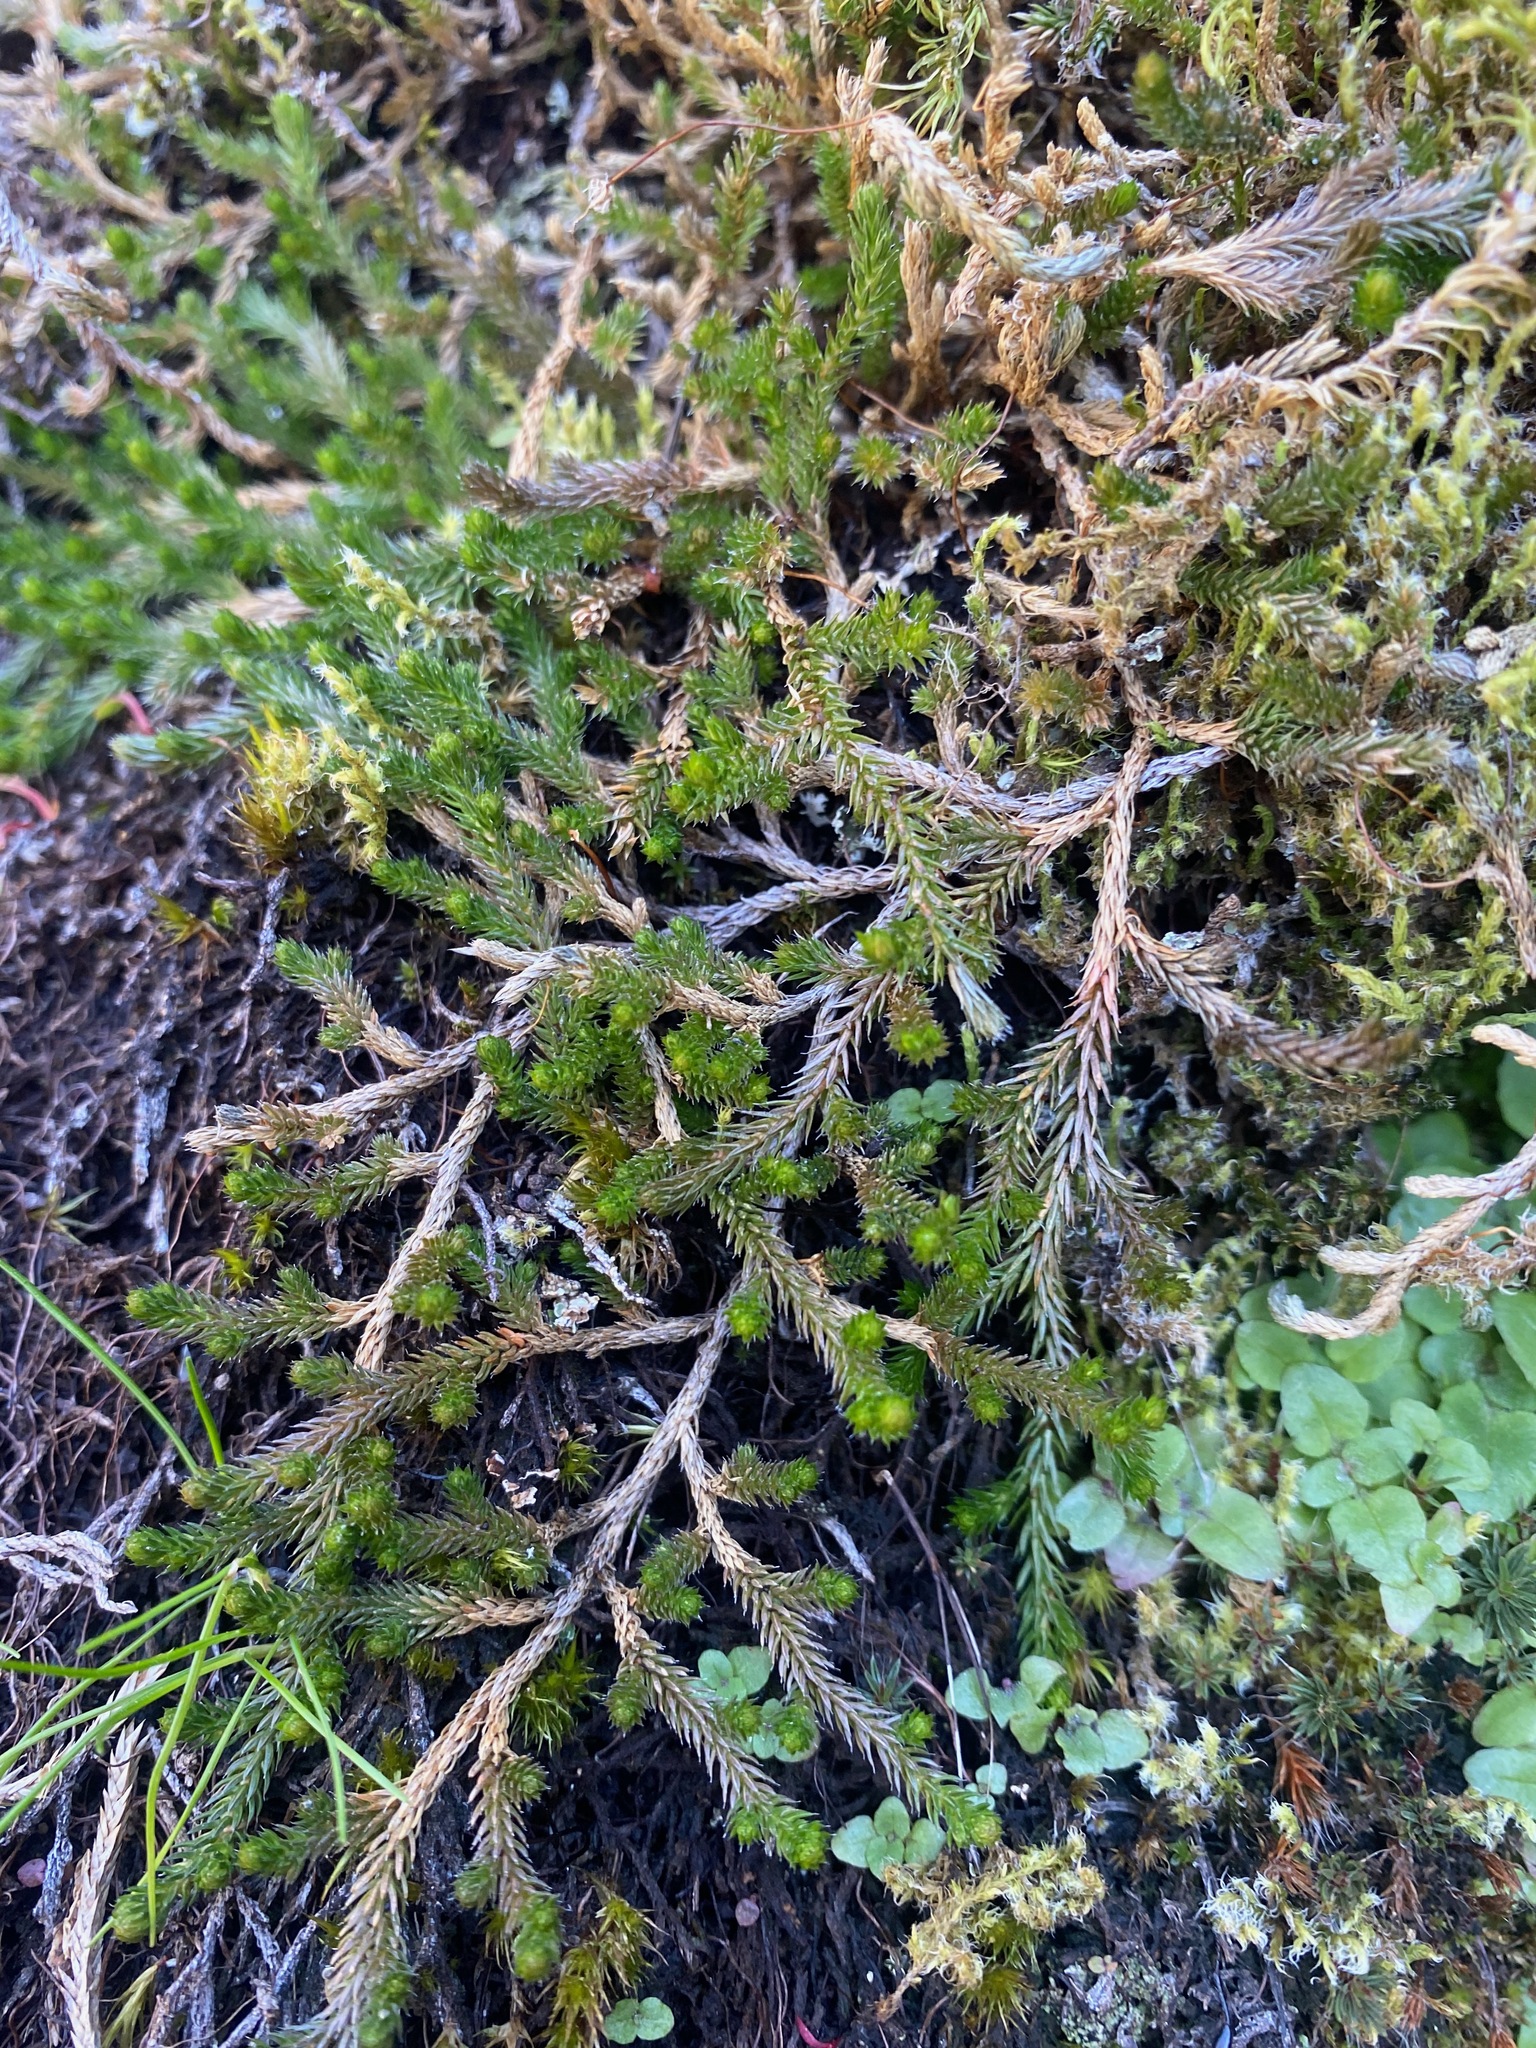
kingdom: Plantae
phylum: Tracheophyta
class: Lycopodiopsida
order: Selaginellales
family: Selaginellaceae
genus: Selaginella
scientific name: Selaginella wallacei
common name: Wallace's selaginella
